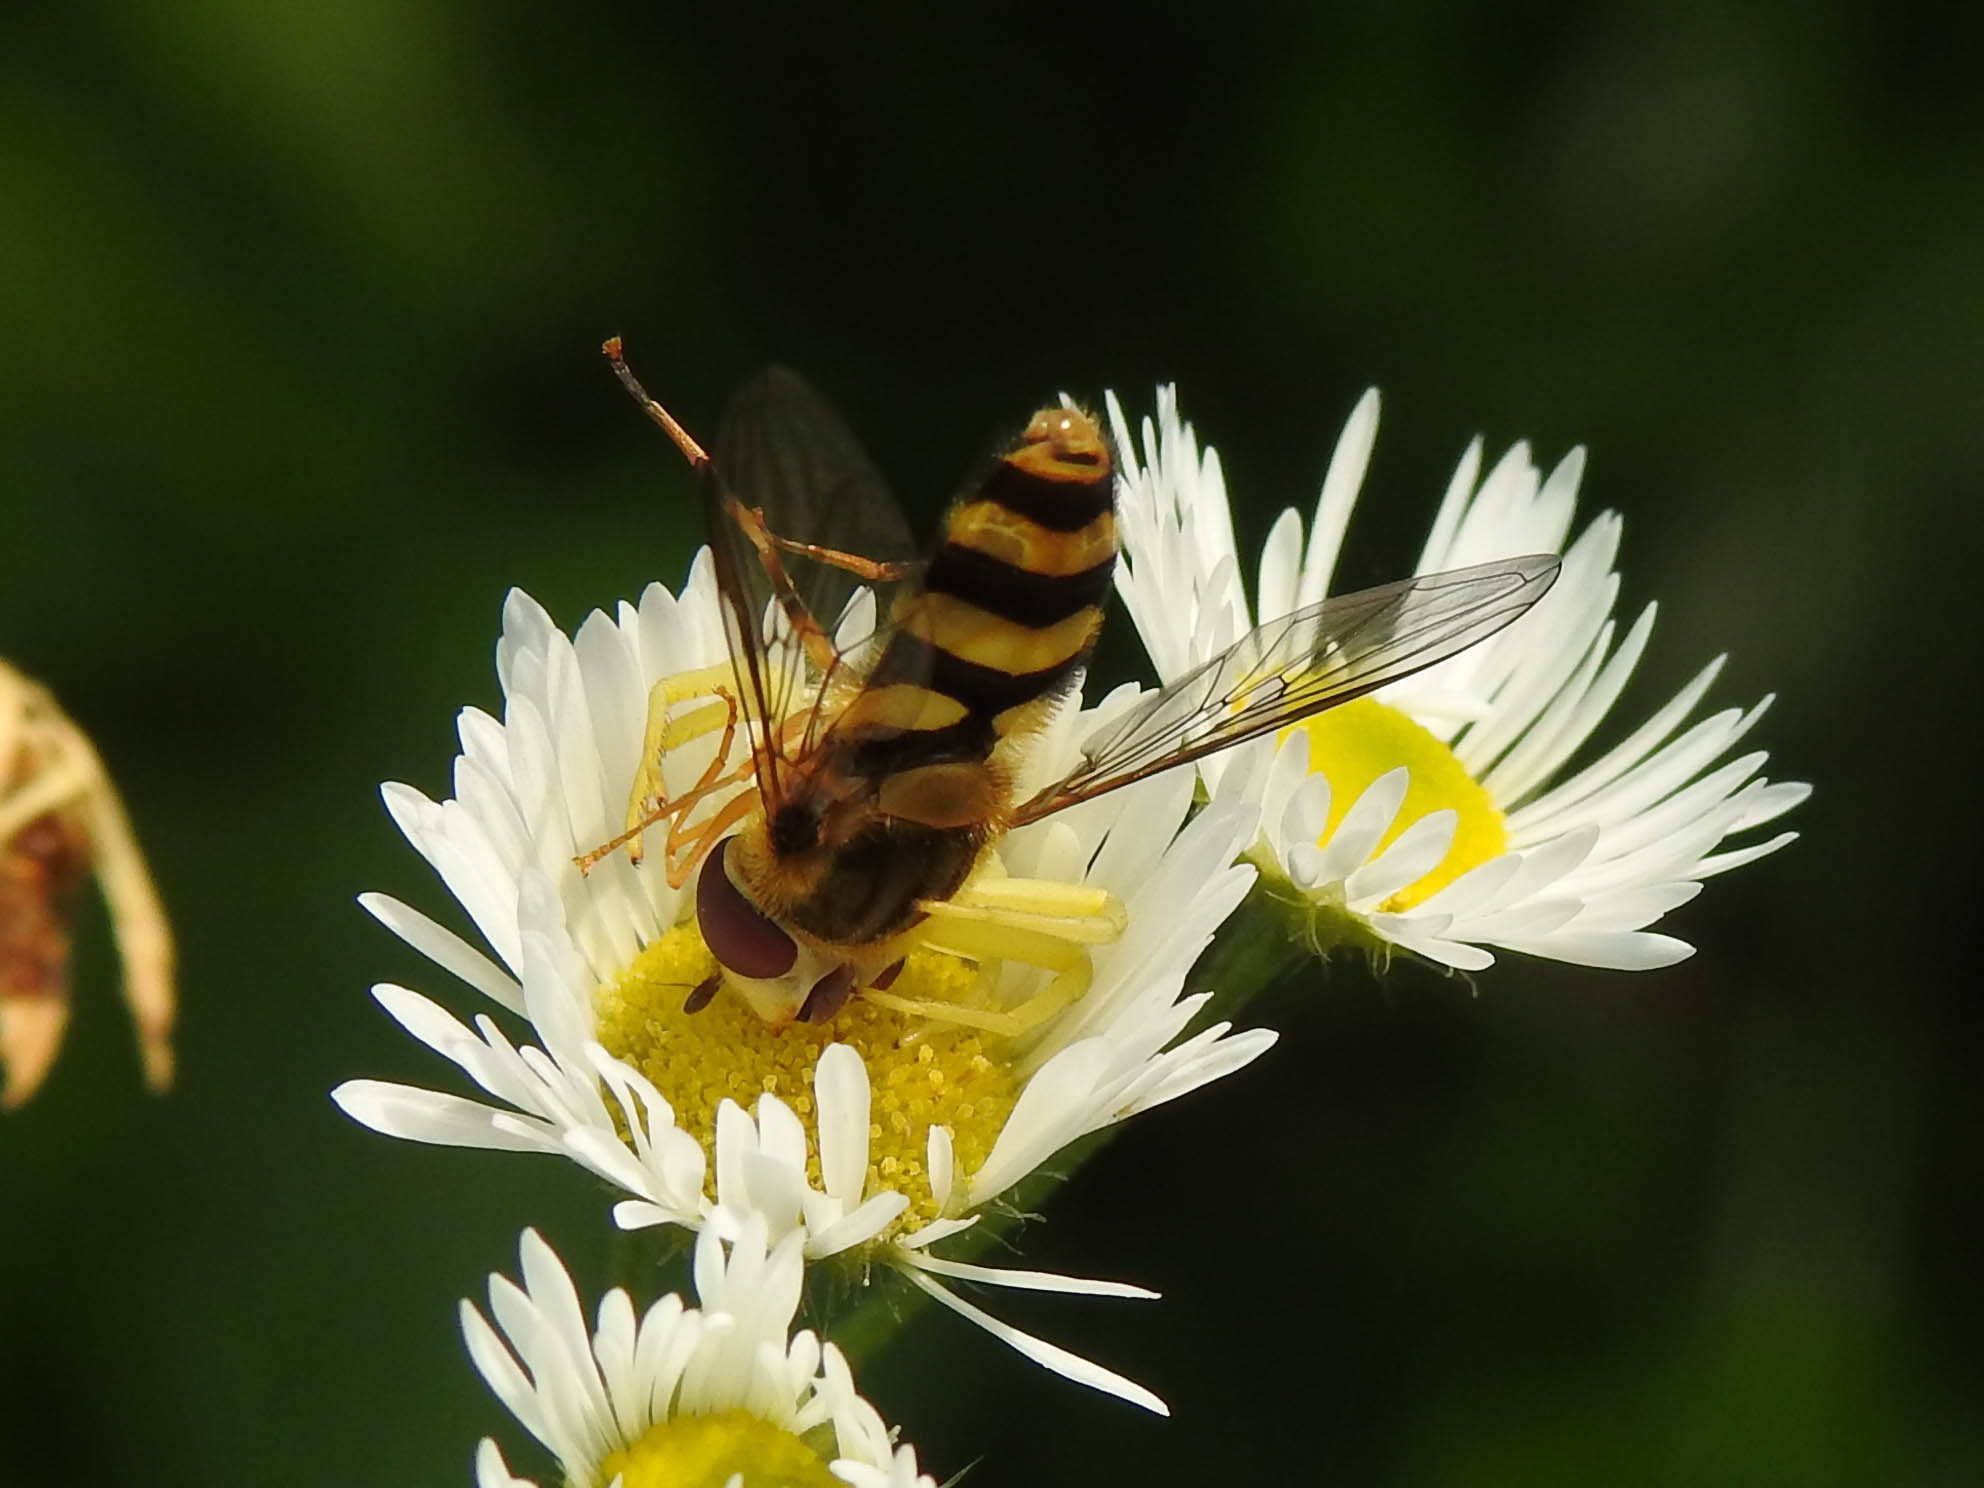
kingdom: Animalia
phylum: Arthropoda
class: Insecta
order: Diptera
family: Syrphidae
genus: Syrphus
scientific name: Syrphus knabi
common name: Eastern flower fly
